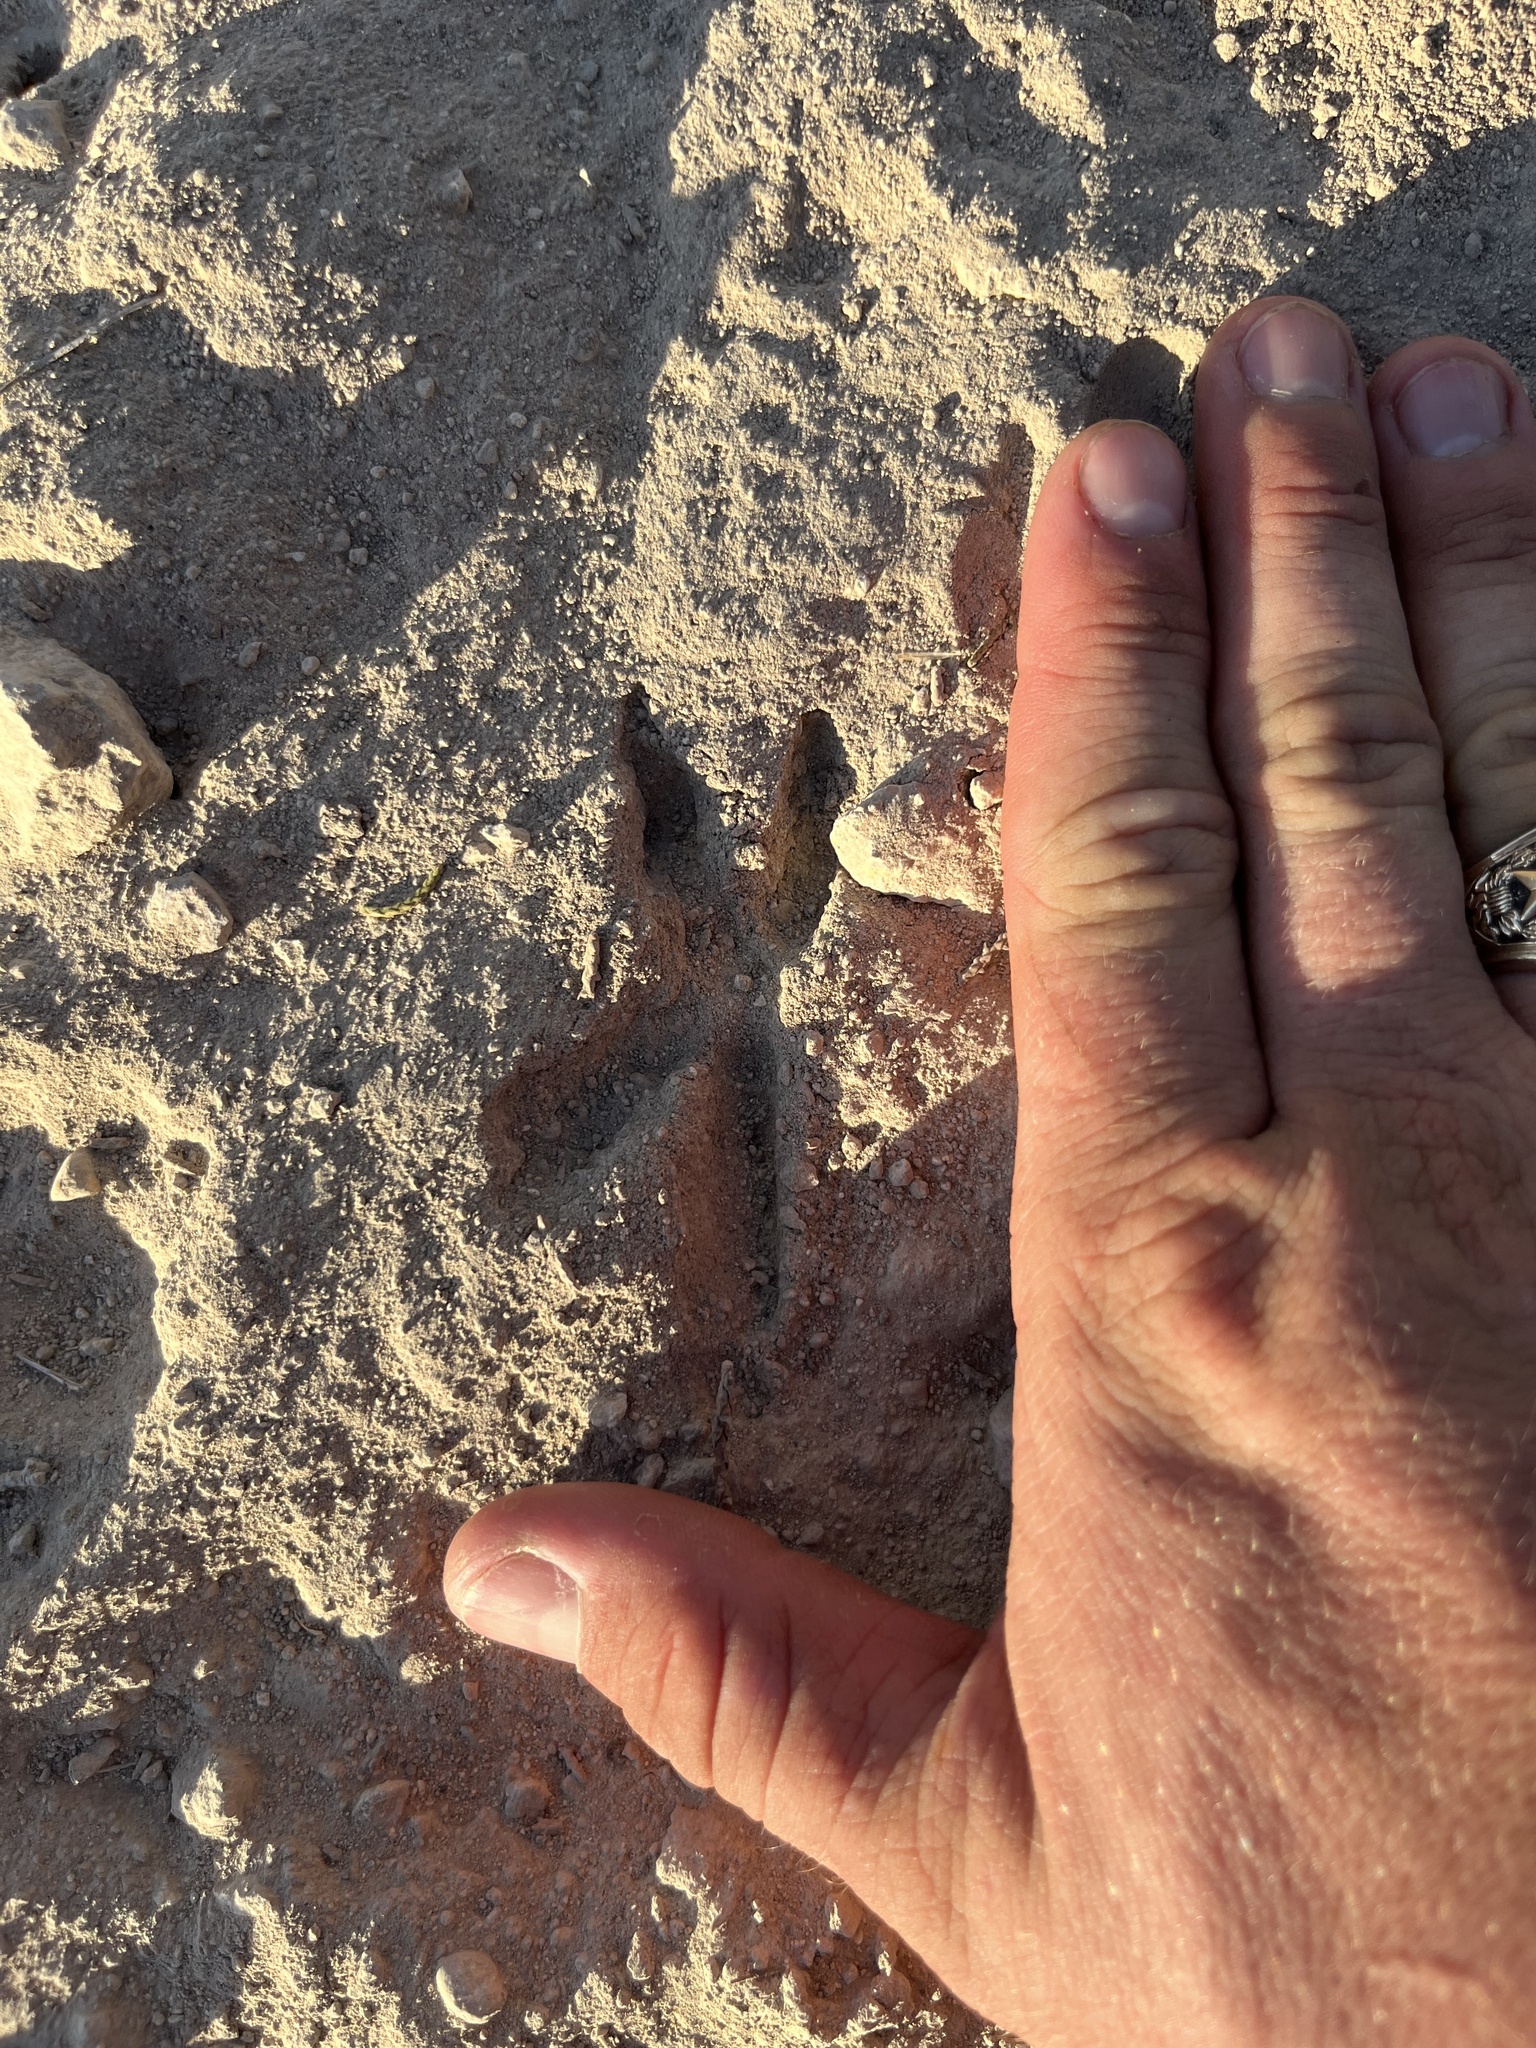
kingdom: Animalia
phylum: Chordata
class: Aves
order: Cuculiformes
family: Cuculidae
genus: Geococcyx
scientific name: Geococcyx californianus
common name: Greater roadrunner
